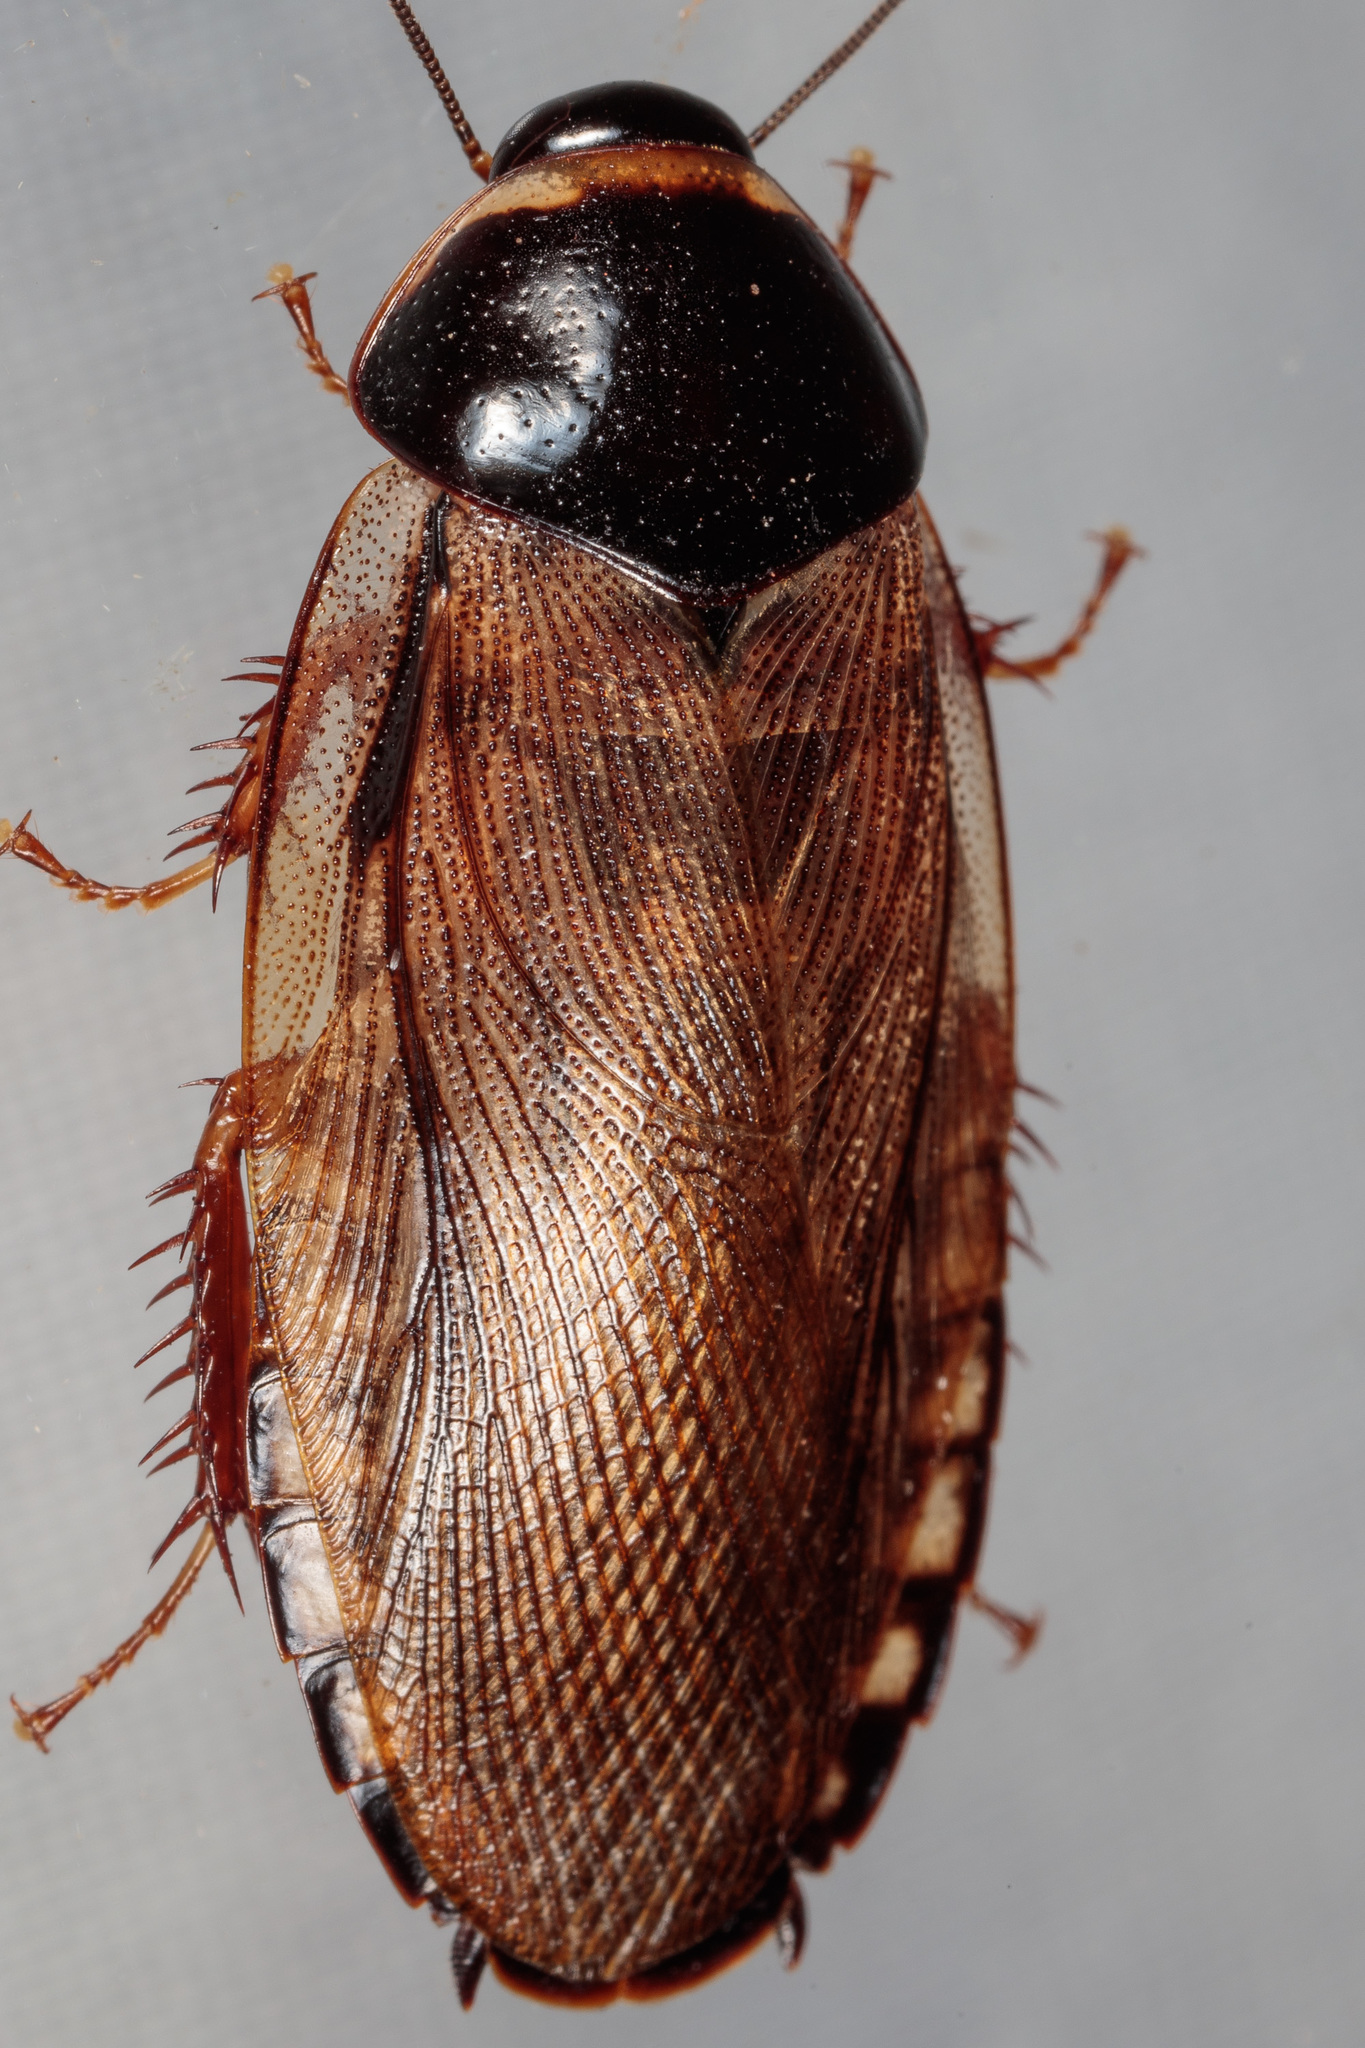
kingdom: Animalia
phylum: Arthropoda
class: Insecta
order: Blattodea
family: Blaberidae
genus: Pycnoscelus
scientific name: Pycnoscelus surinamensis
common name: Surinam cockroach
